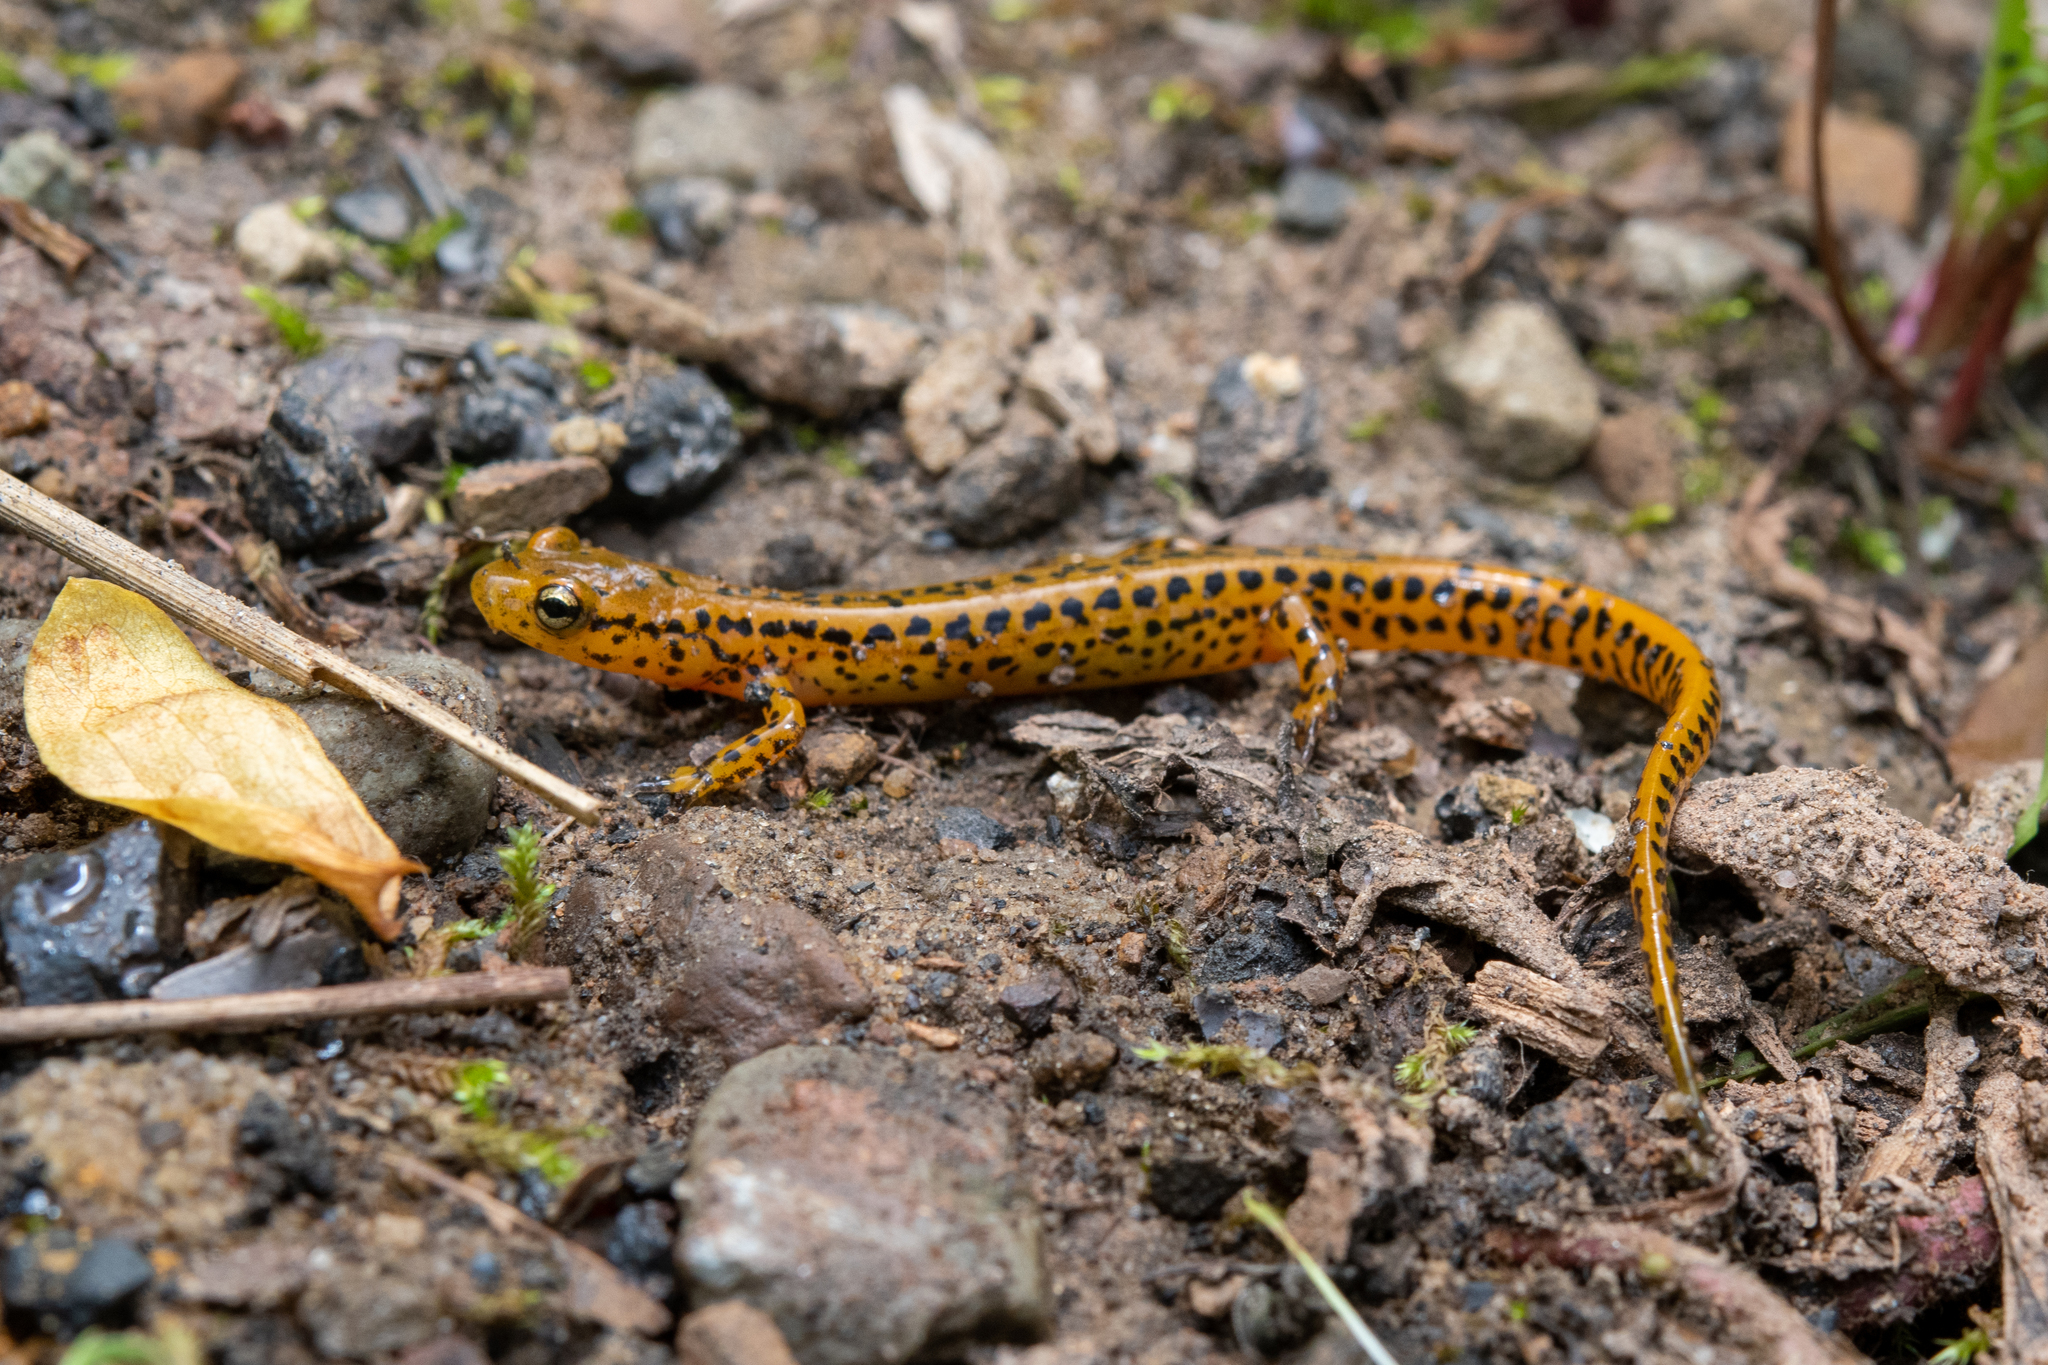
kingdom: Animalia
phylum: Chordata
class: Amphibia
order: Caudata
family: Plethodontidae
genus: Eurycea
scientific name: Eurycea longicauda
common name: Long-tailed salamander
